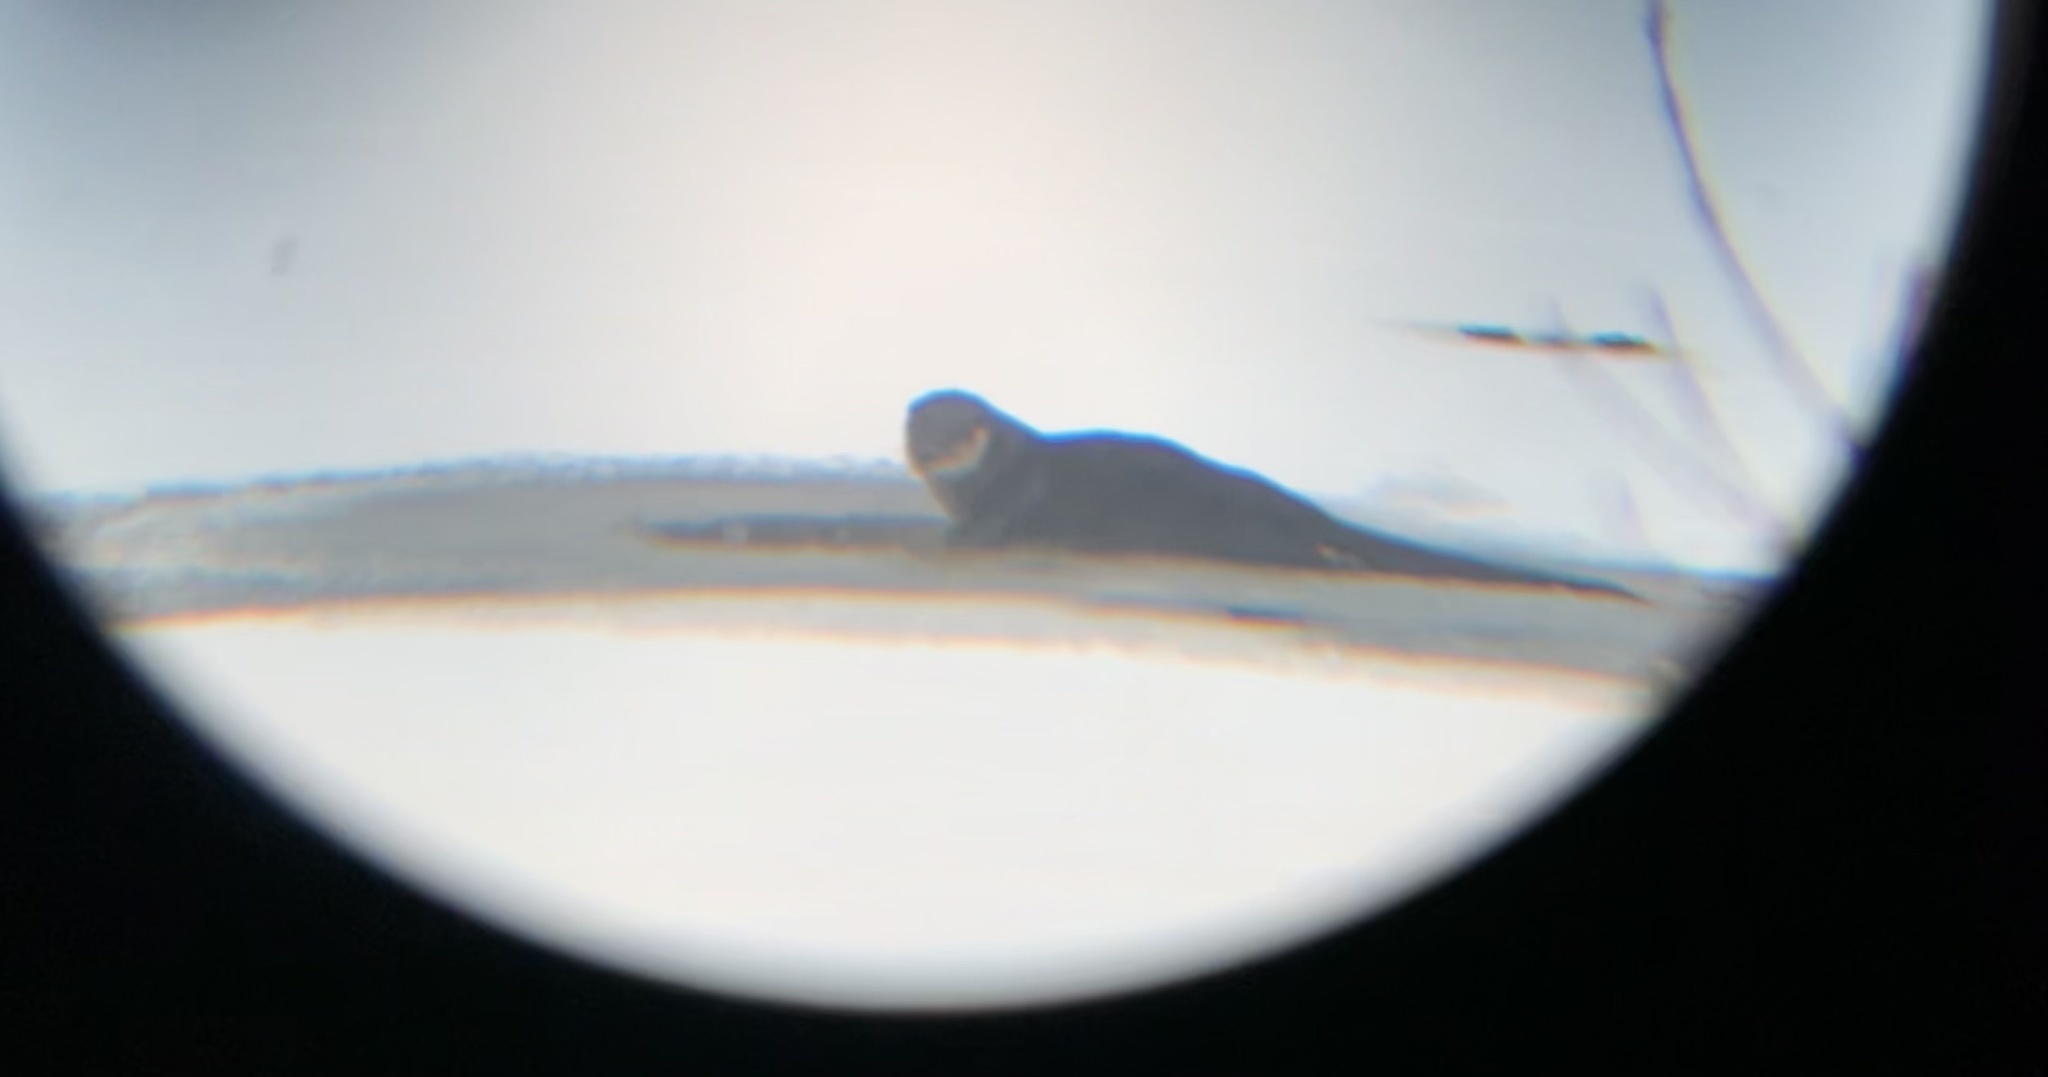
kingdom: Animalia
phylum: Chordata
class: Mammalia
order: Carnivora
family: Mustelidae
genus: Lontra
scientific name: Lontra canadensis
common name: North american river otter
